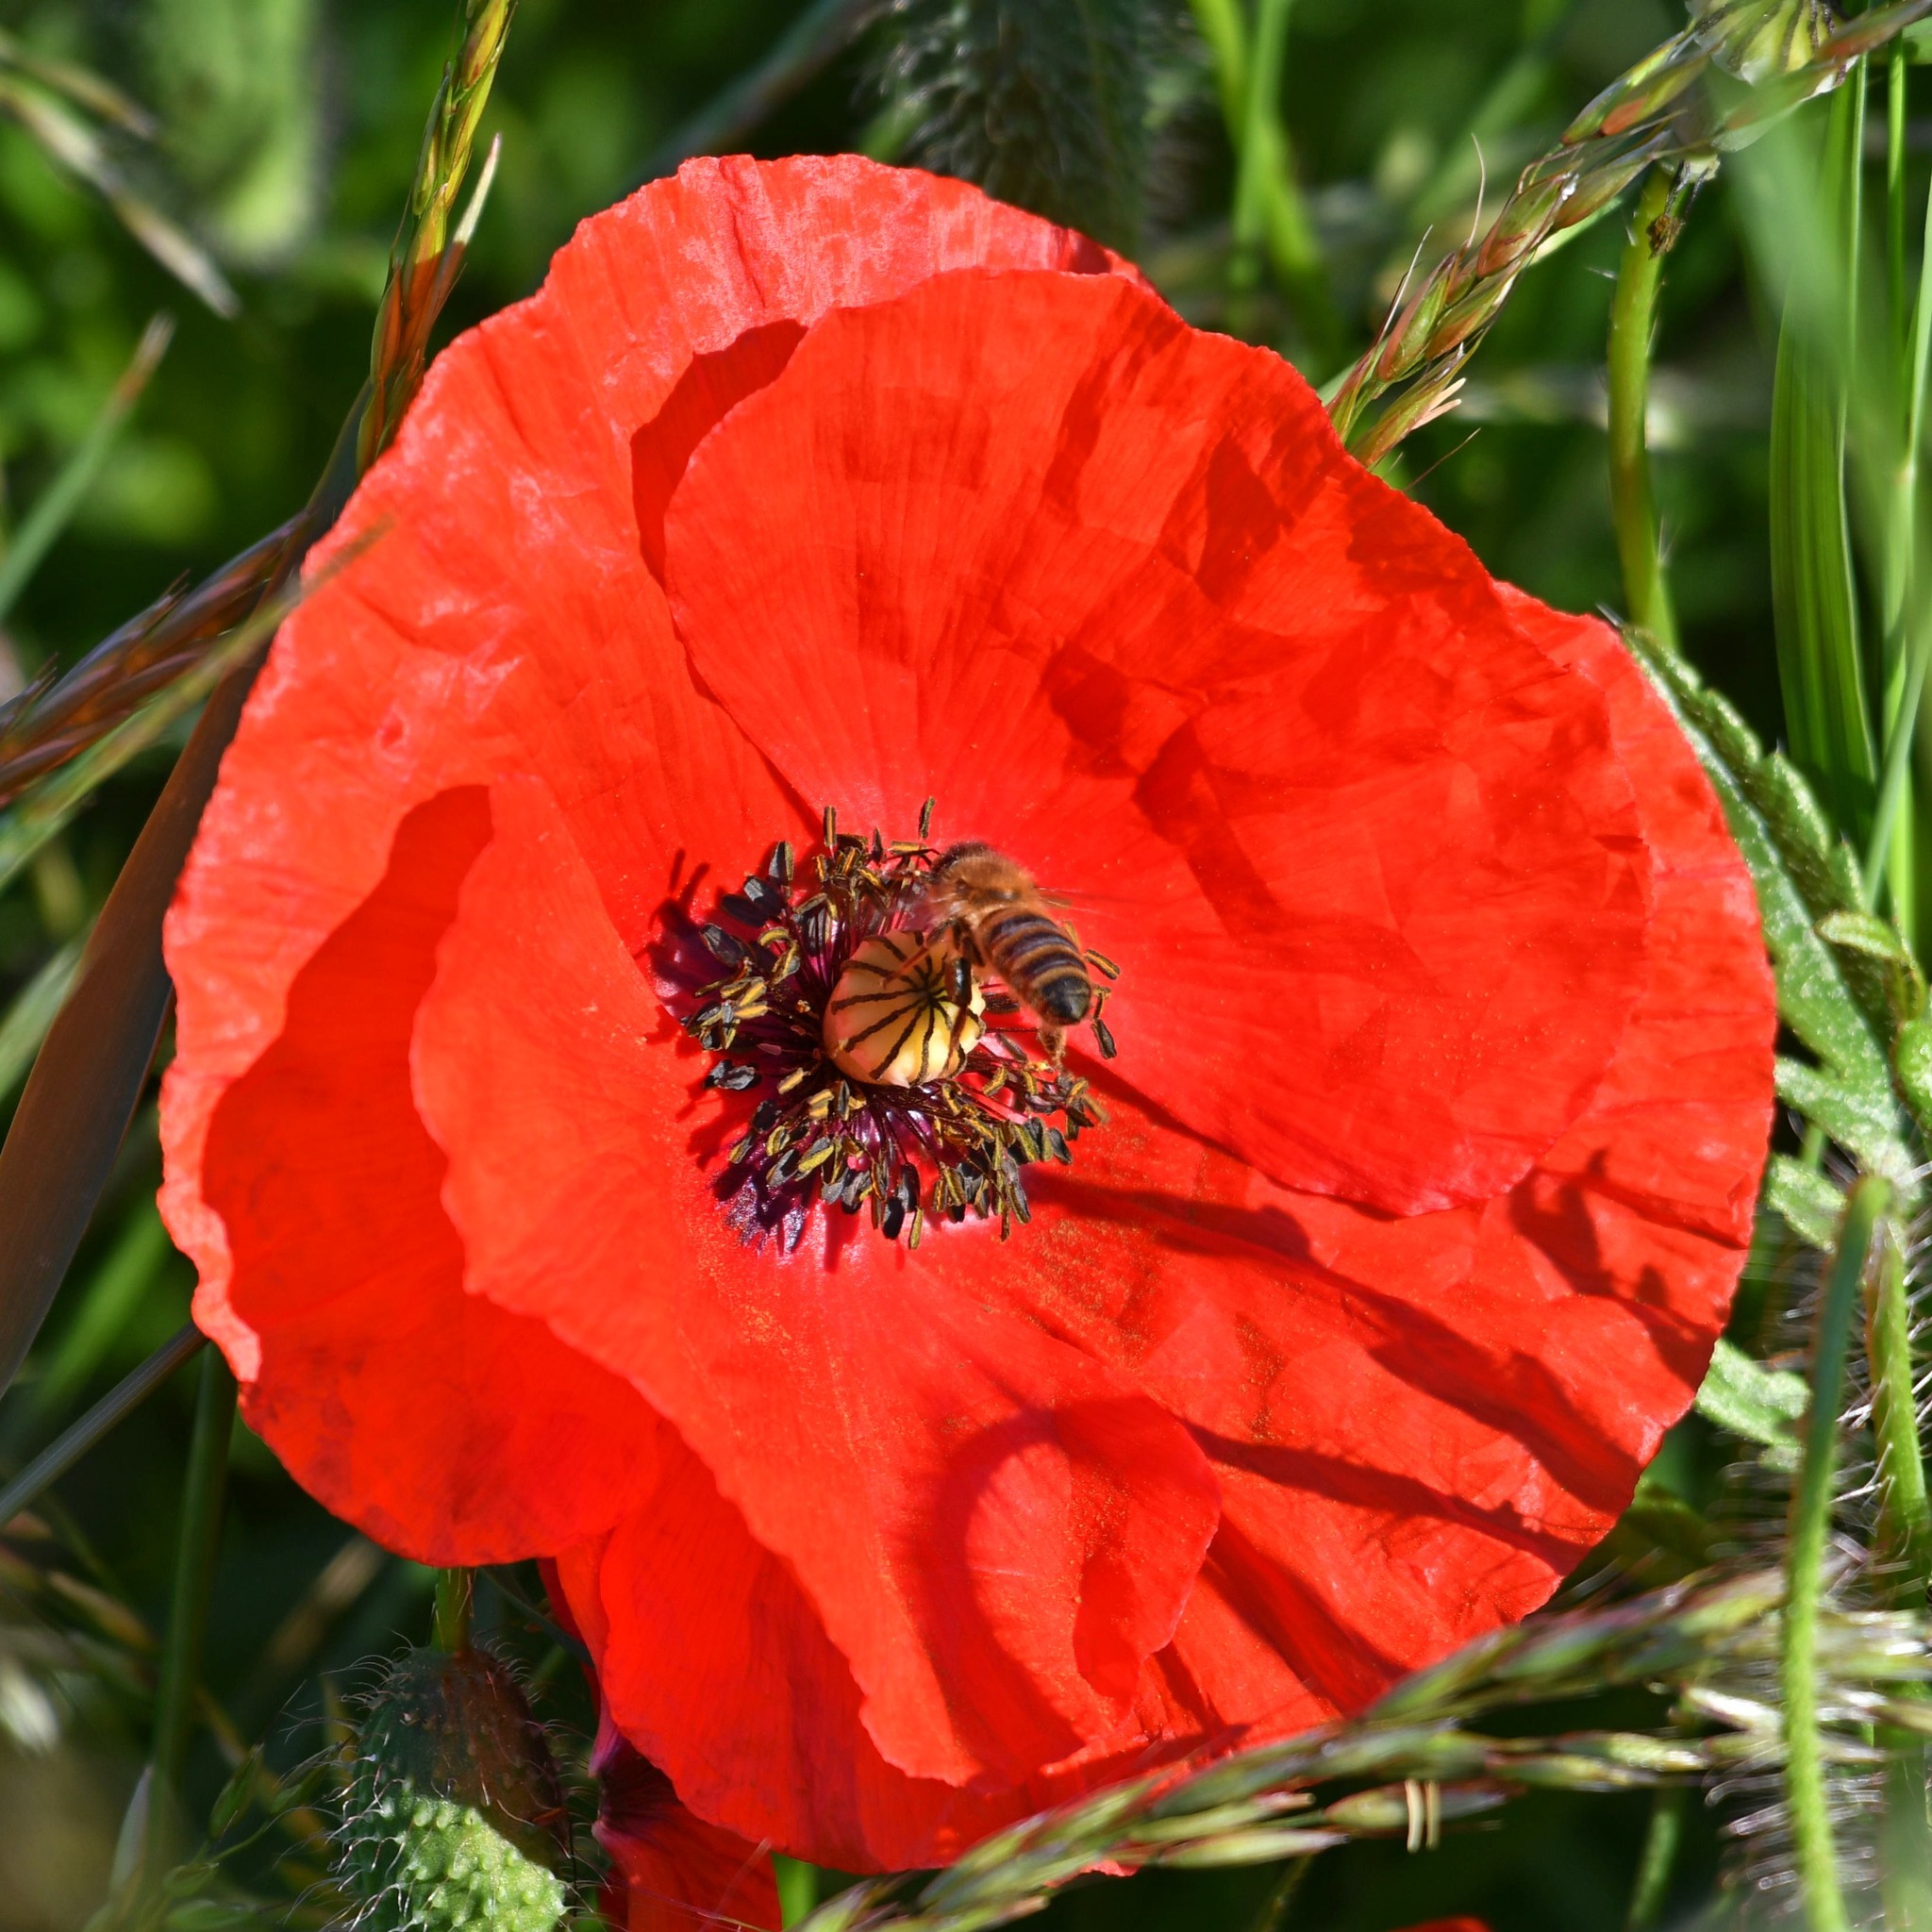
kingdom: Plantae
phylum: Tracheophyta
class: Magnoliopsida
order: Ranunculales
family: Papaveraceae
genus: Papaver
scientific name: Papaver rhoeas
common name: Corn poppy
